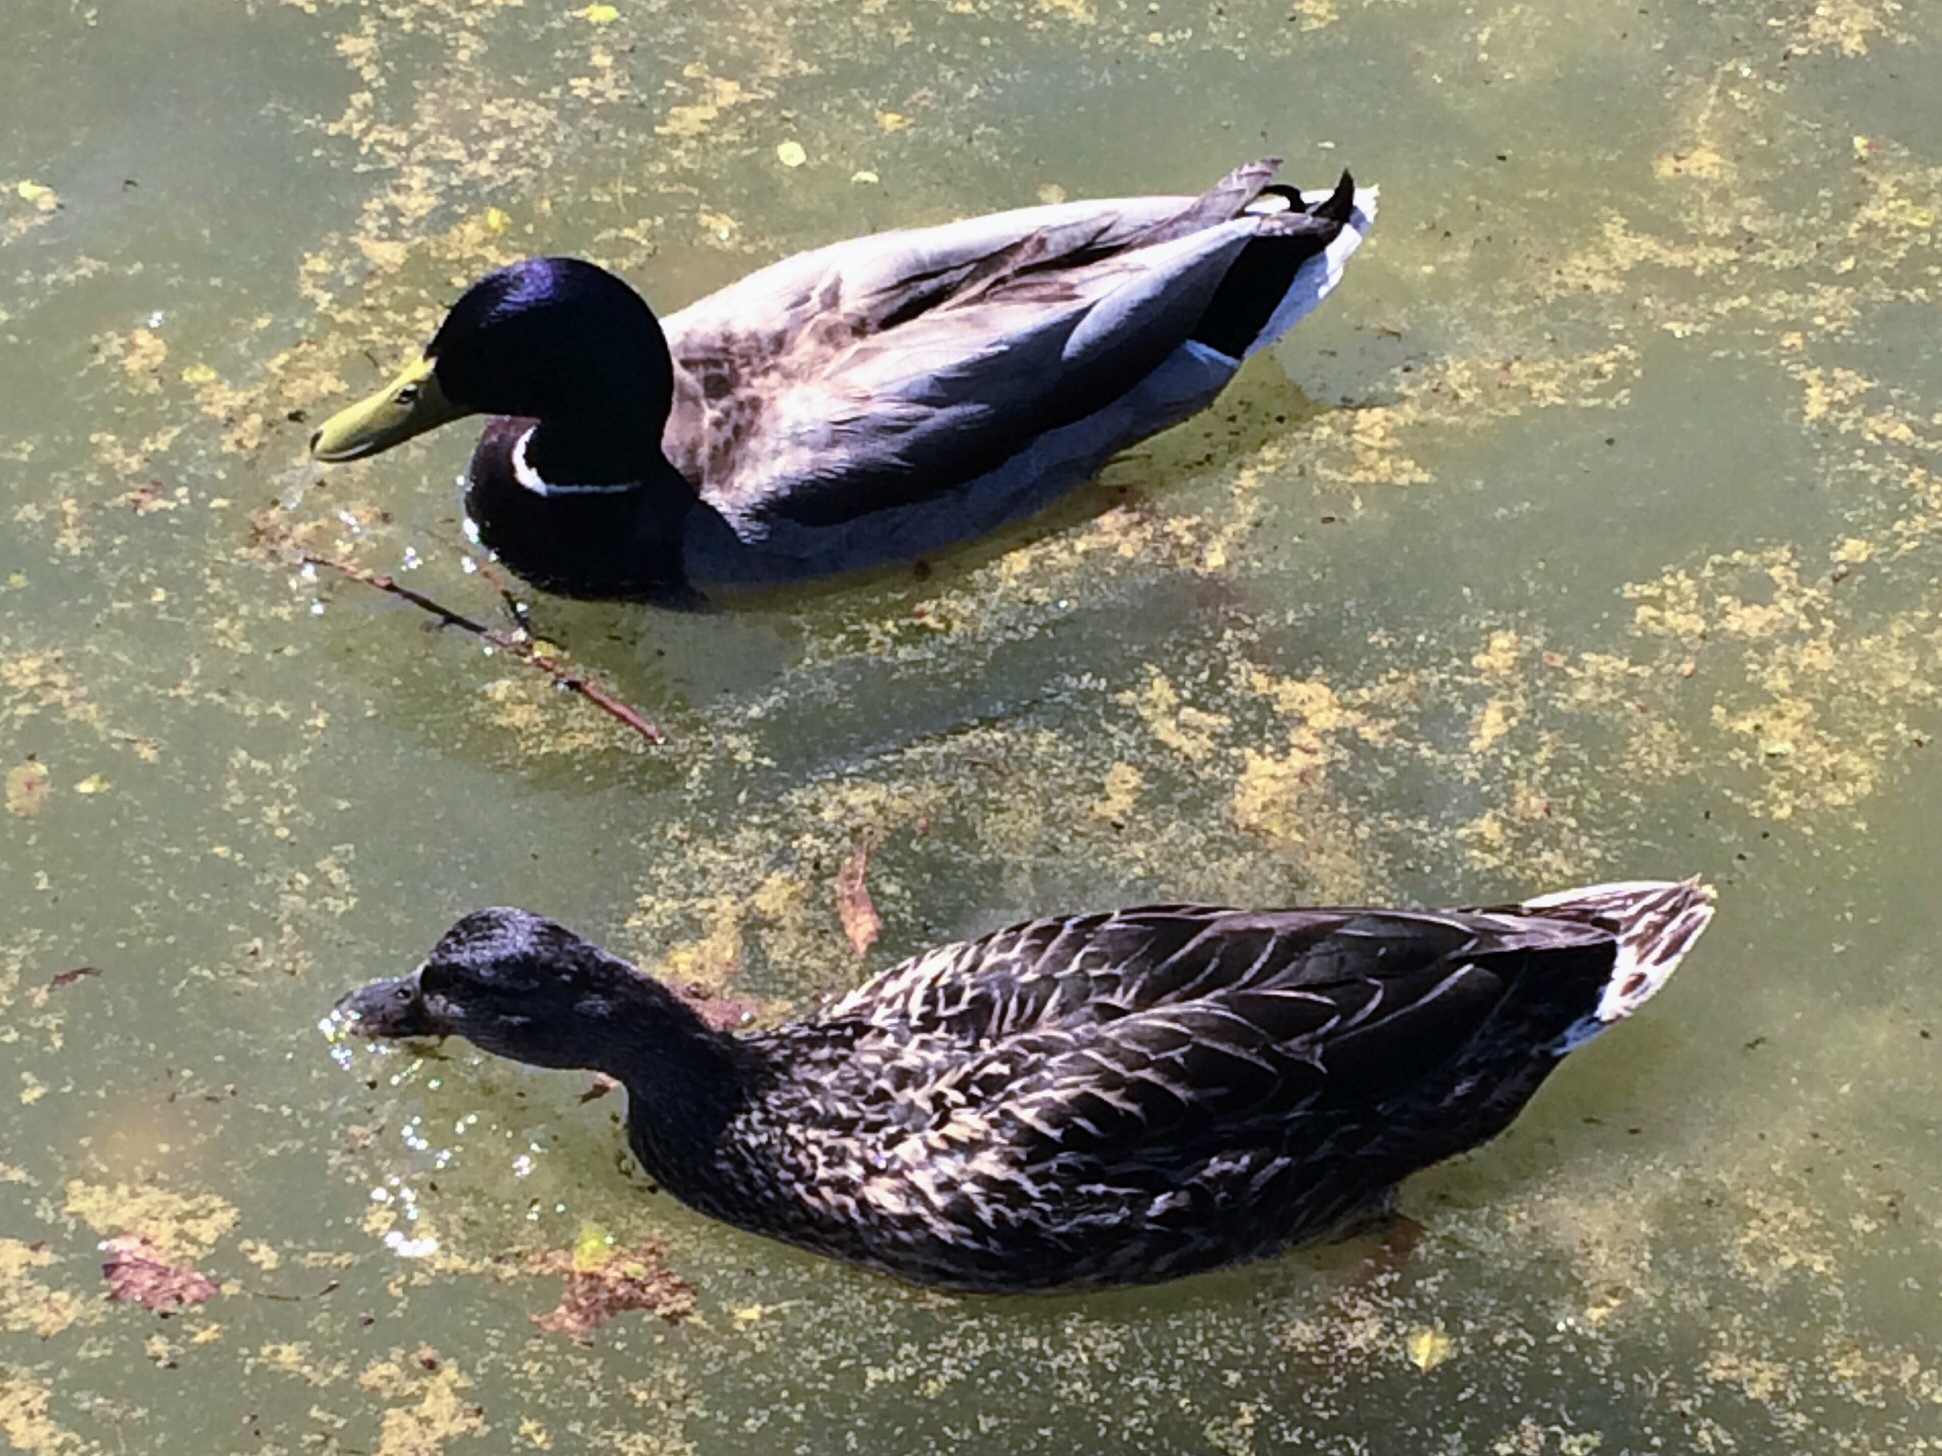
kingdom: Animalia
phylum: Chordata
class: Aves
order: Anseriformes
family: Anatidae
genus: Anas
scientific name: Anas platyrhynchos
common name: Mallard
